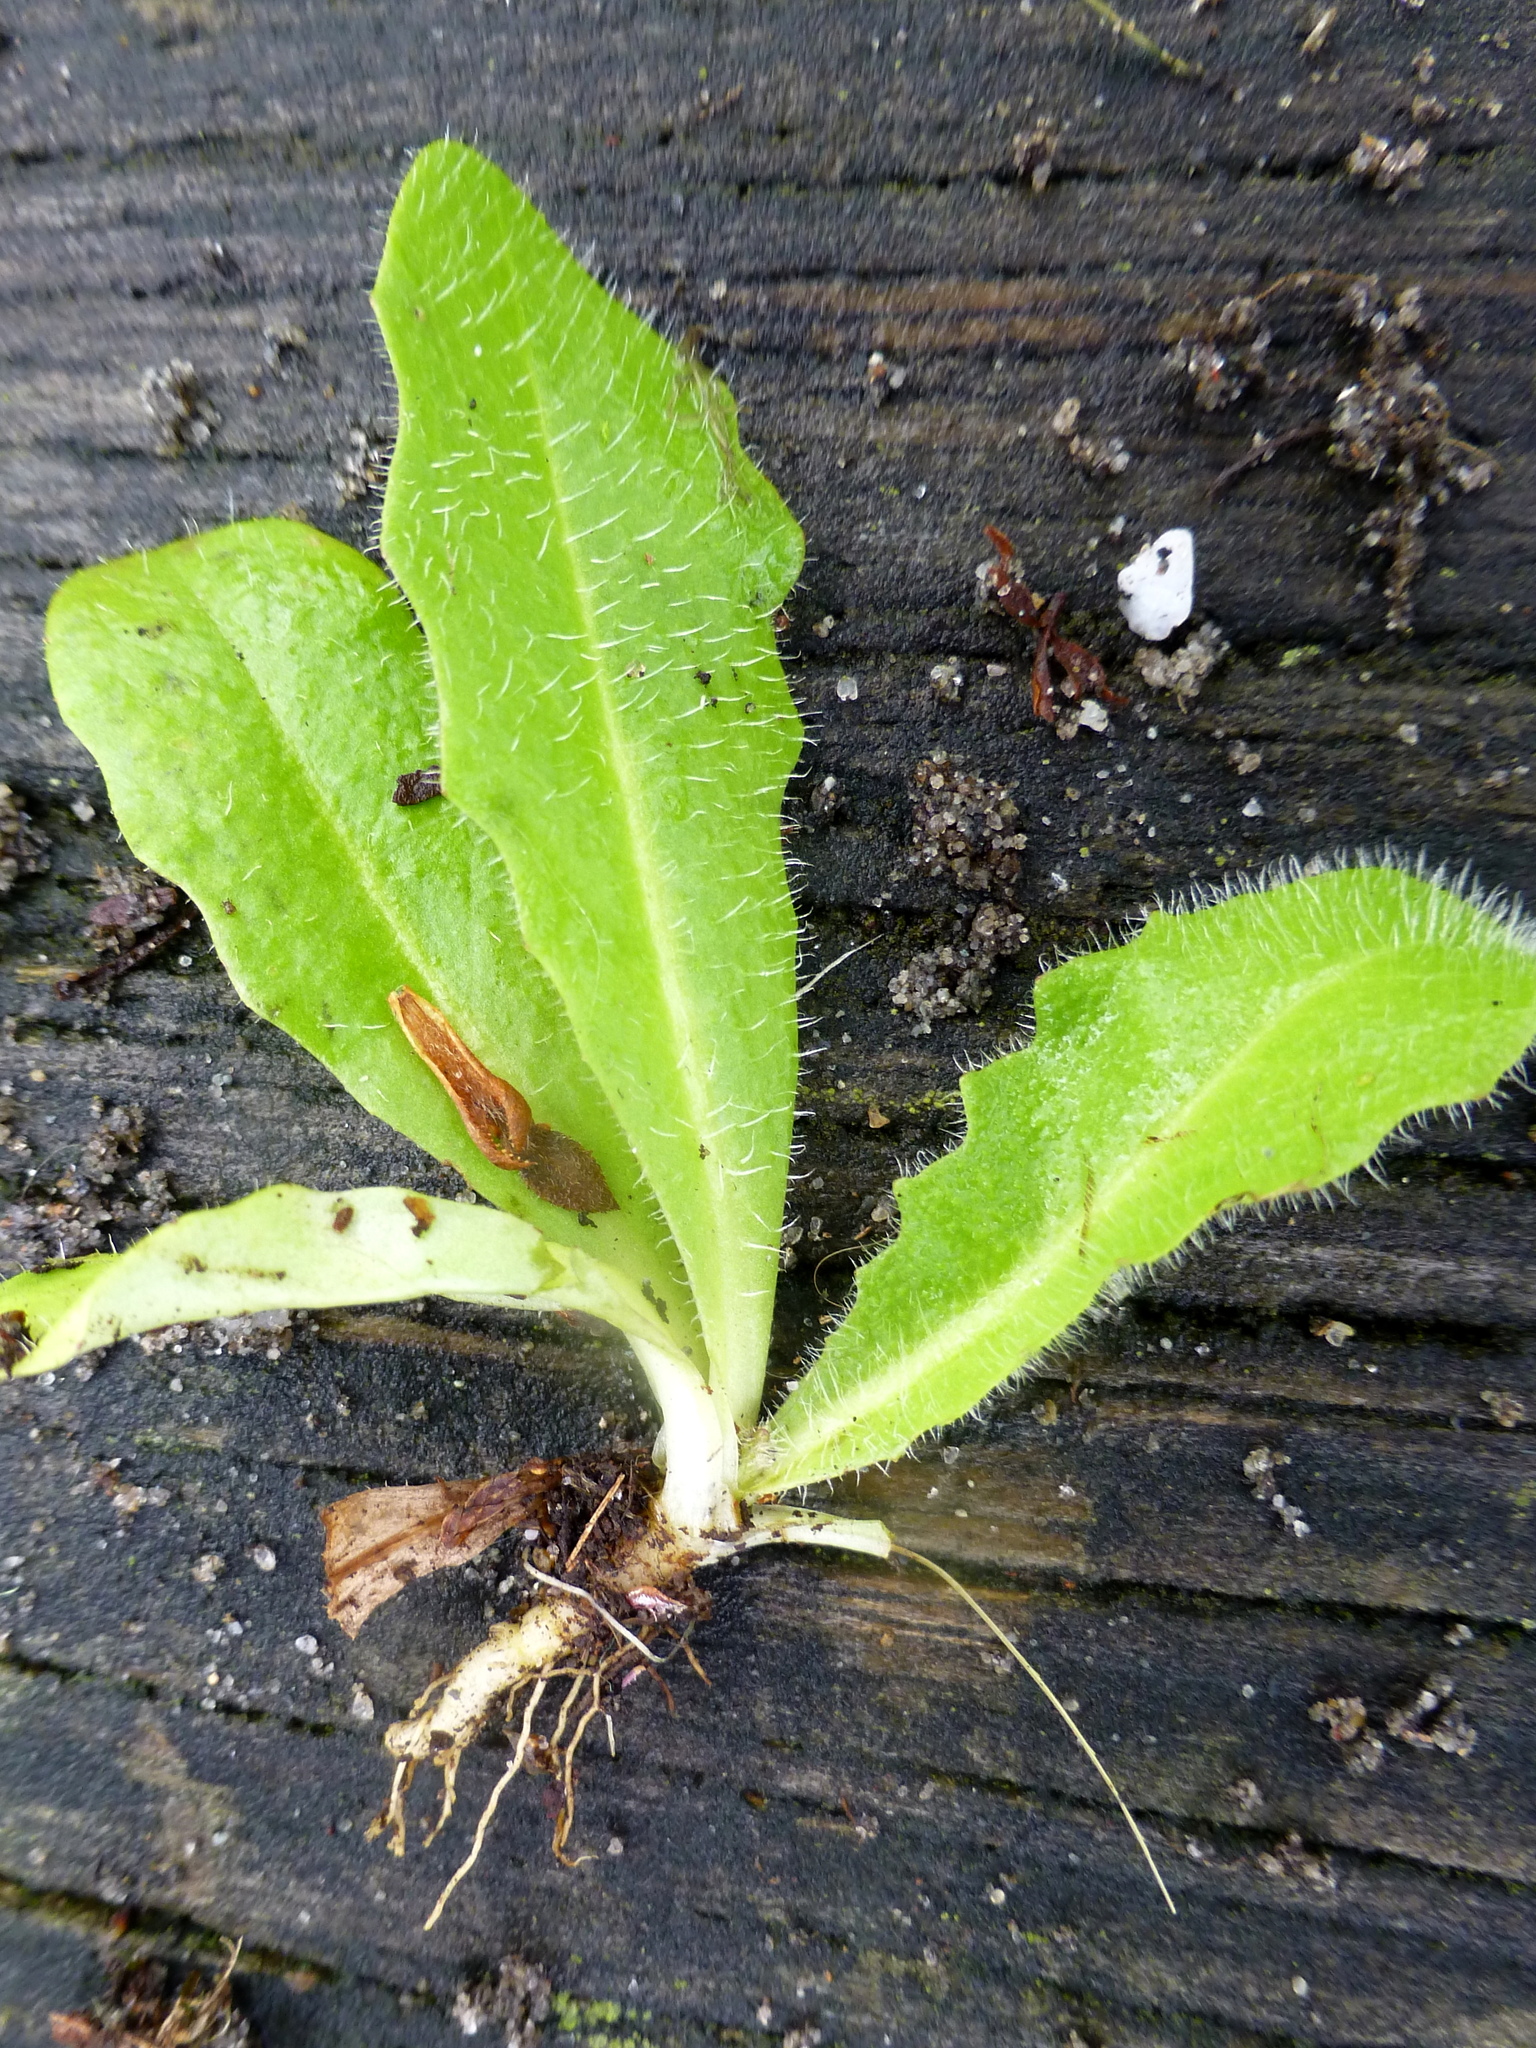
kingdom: Plantae
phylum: Tracheophyta
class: Magnoliopsida
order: Asterales
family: Asteraceae
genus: Hypochaeris
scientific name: Hypochaeris radicata
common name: Flatweed
